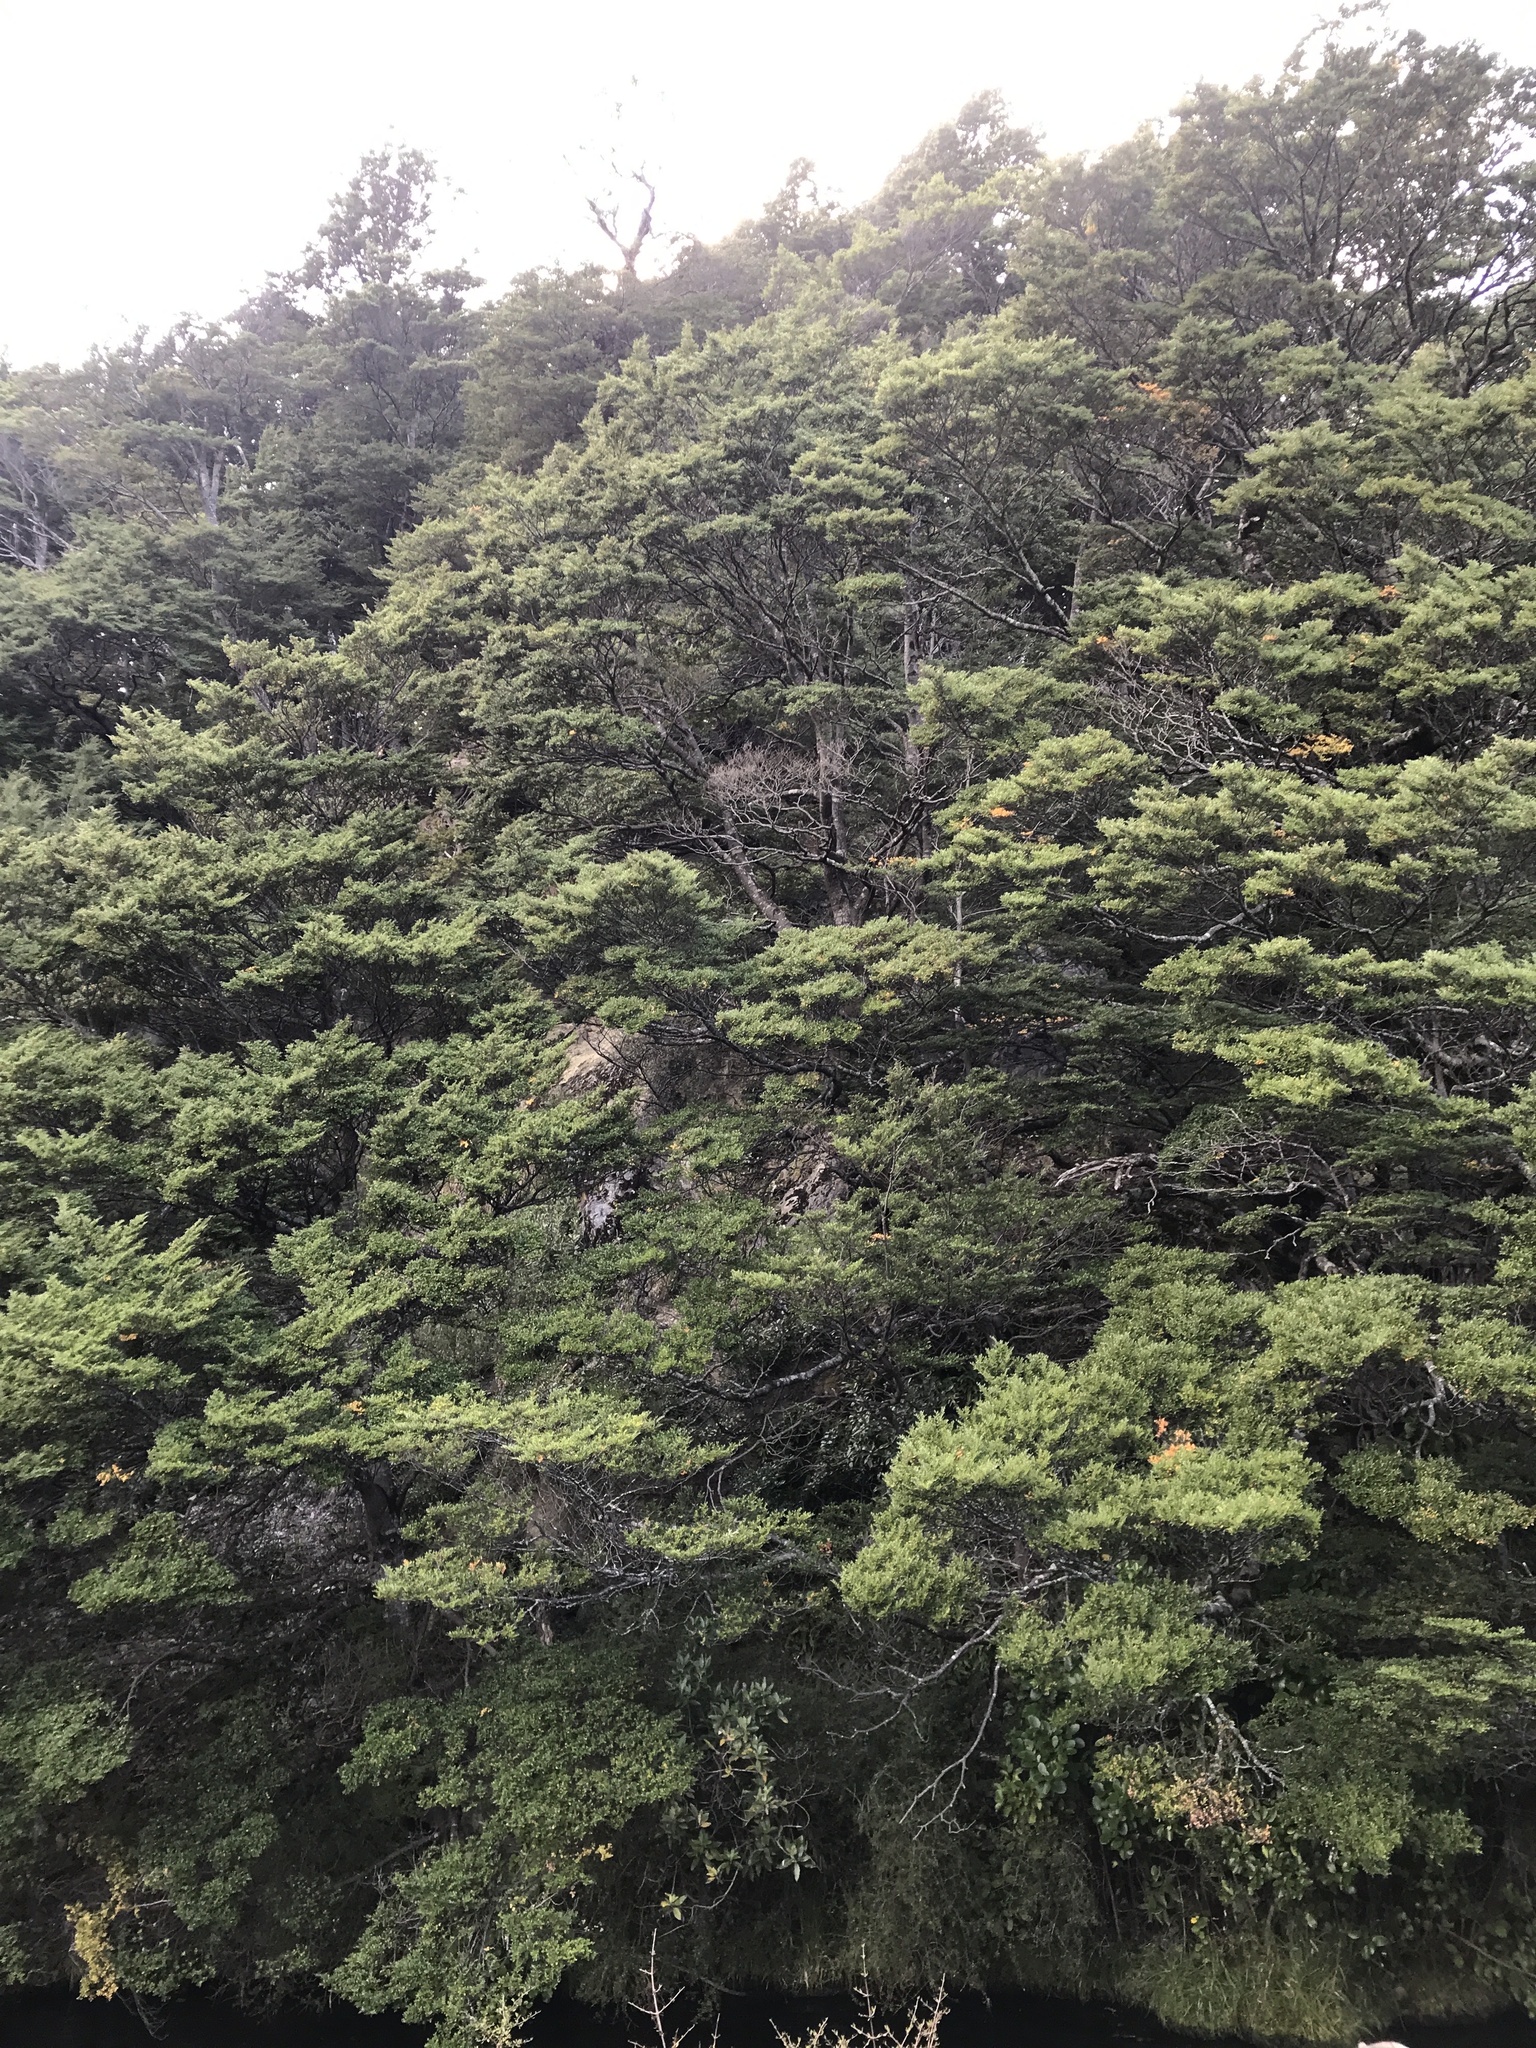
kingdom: Plantae
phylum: Tracheophyta
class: Magnoliopsida
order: Fagales
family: Nothofagaceae
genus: Nothofagus
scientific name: Nothofagus cliffortioides
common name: Mountain beech
